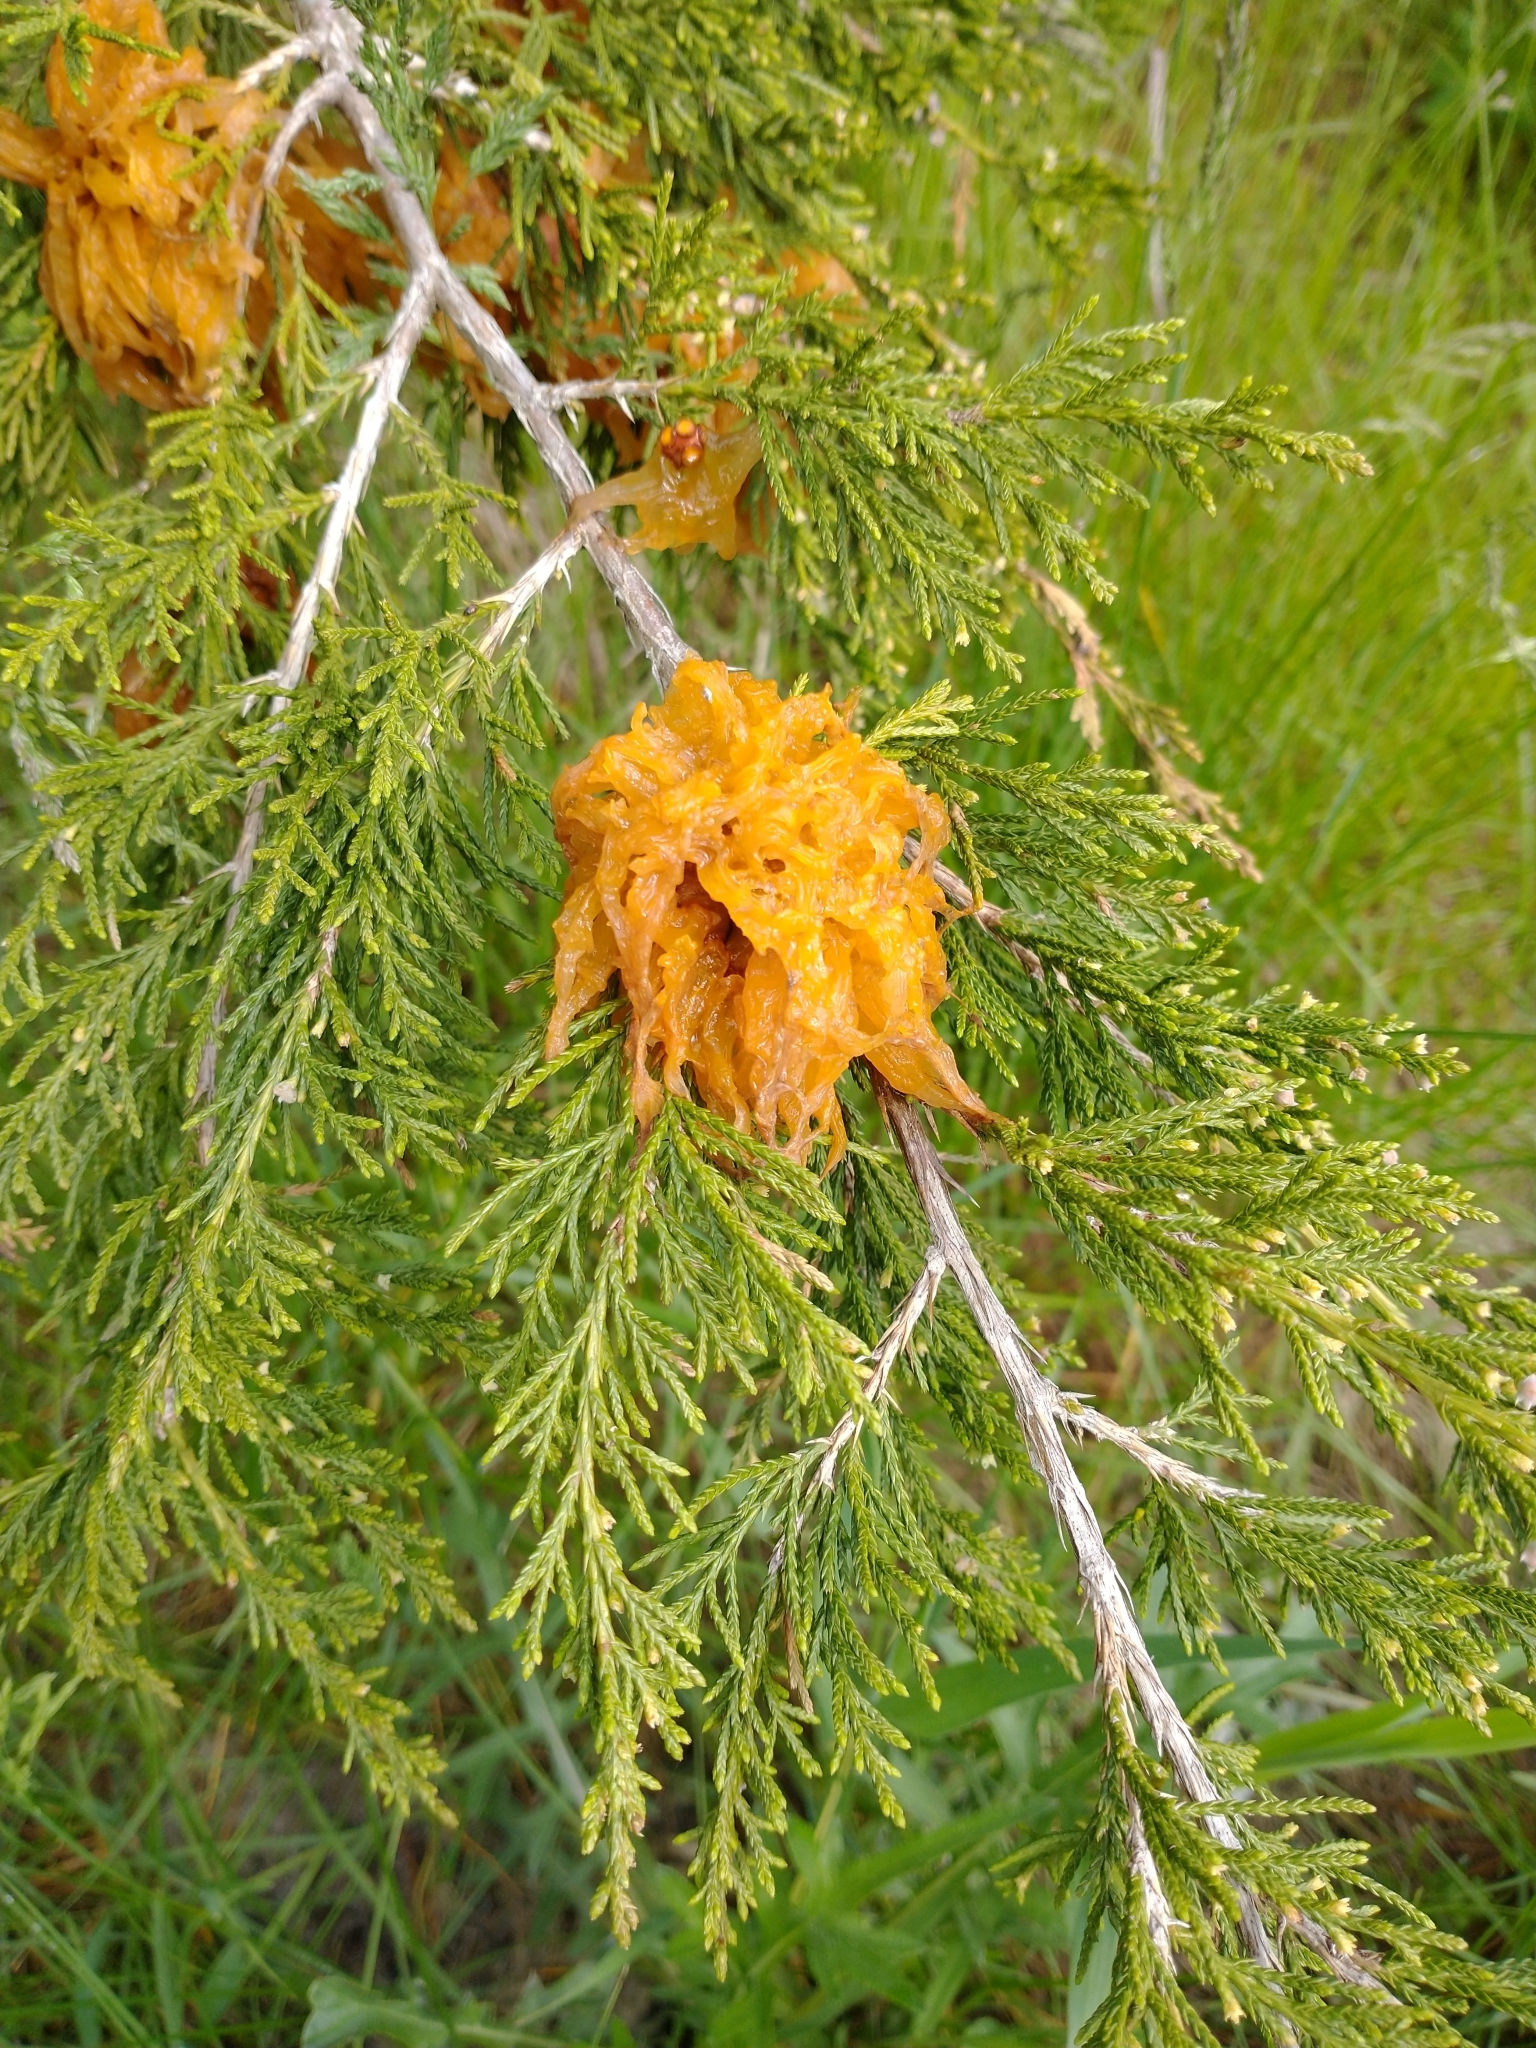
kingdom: Fungi
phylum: Basidiomycota
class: Pucciniomycetes
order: Pucciniales
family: Gymnosporangiaceae
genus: Gymnosporangium
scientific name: Gymnosporangium juniperi-virginianae
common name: Juniper-apple rust
